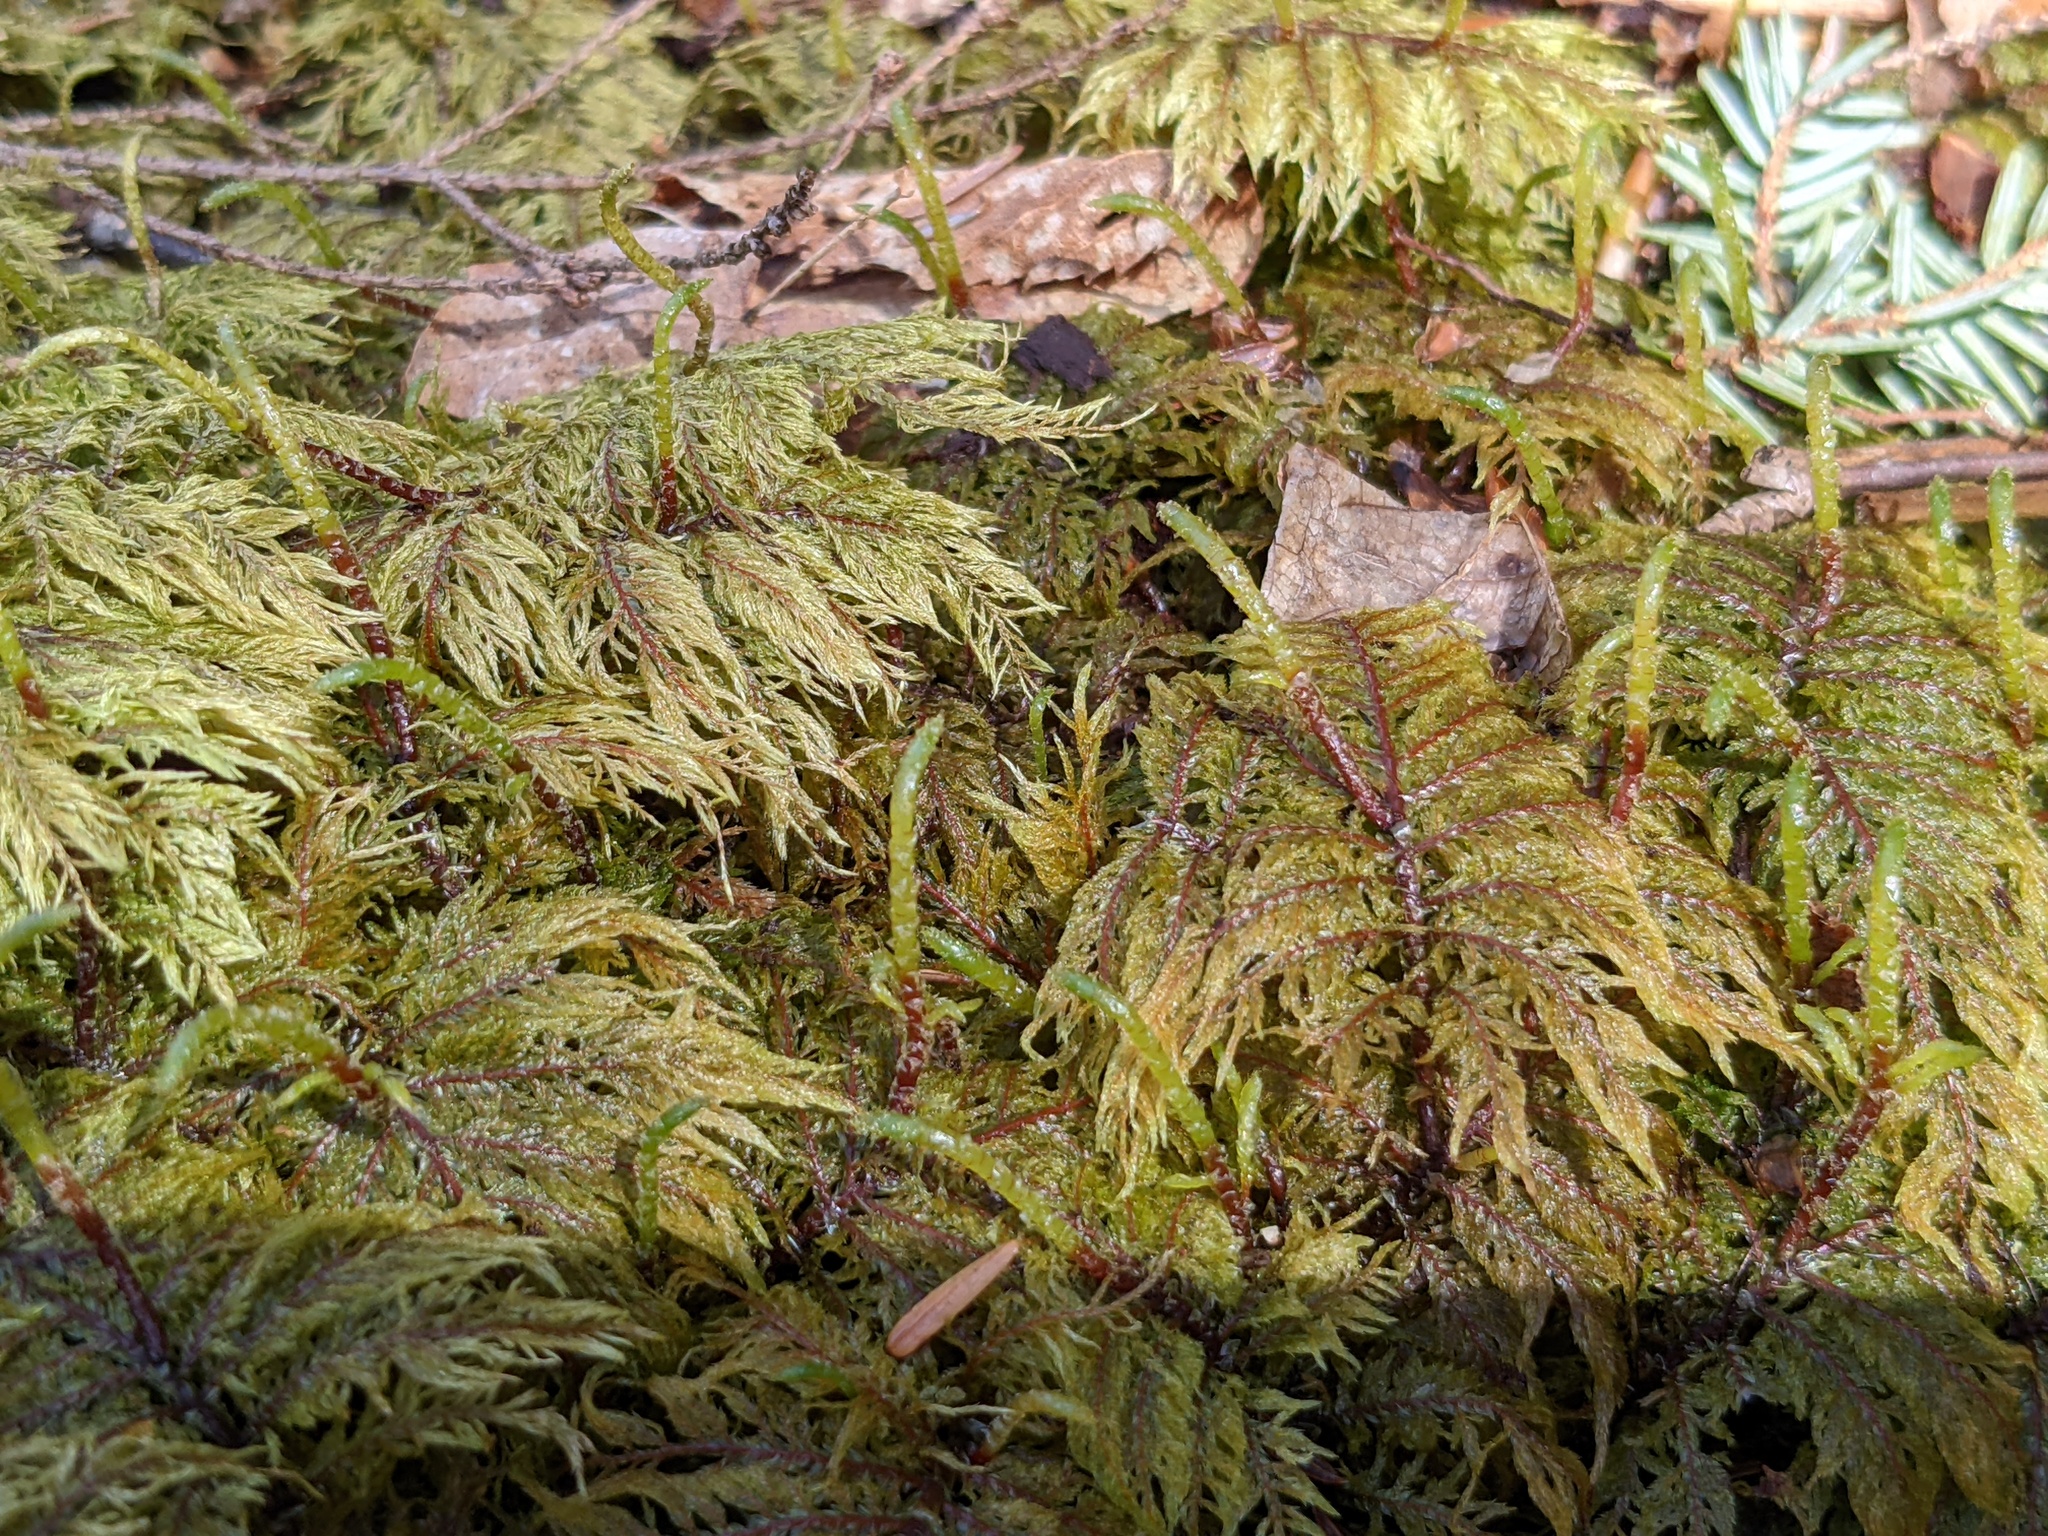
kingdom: Plantae
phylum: Bryophyta
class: Bryopsida
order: Hypnales
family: Hylocomiaceae
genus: Hylocomium
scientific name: Hylocomium splendens
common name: Stairstep moss
